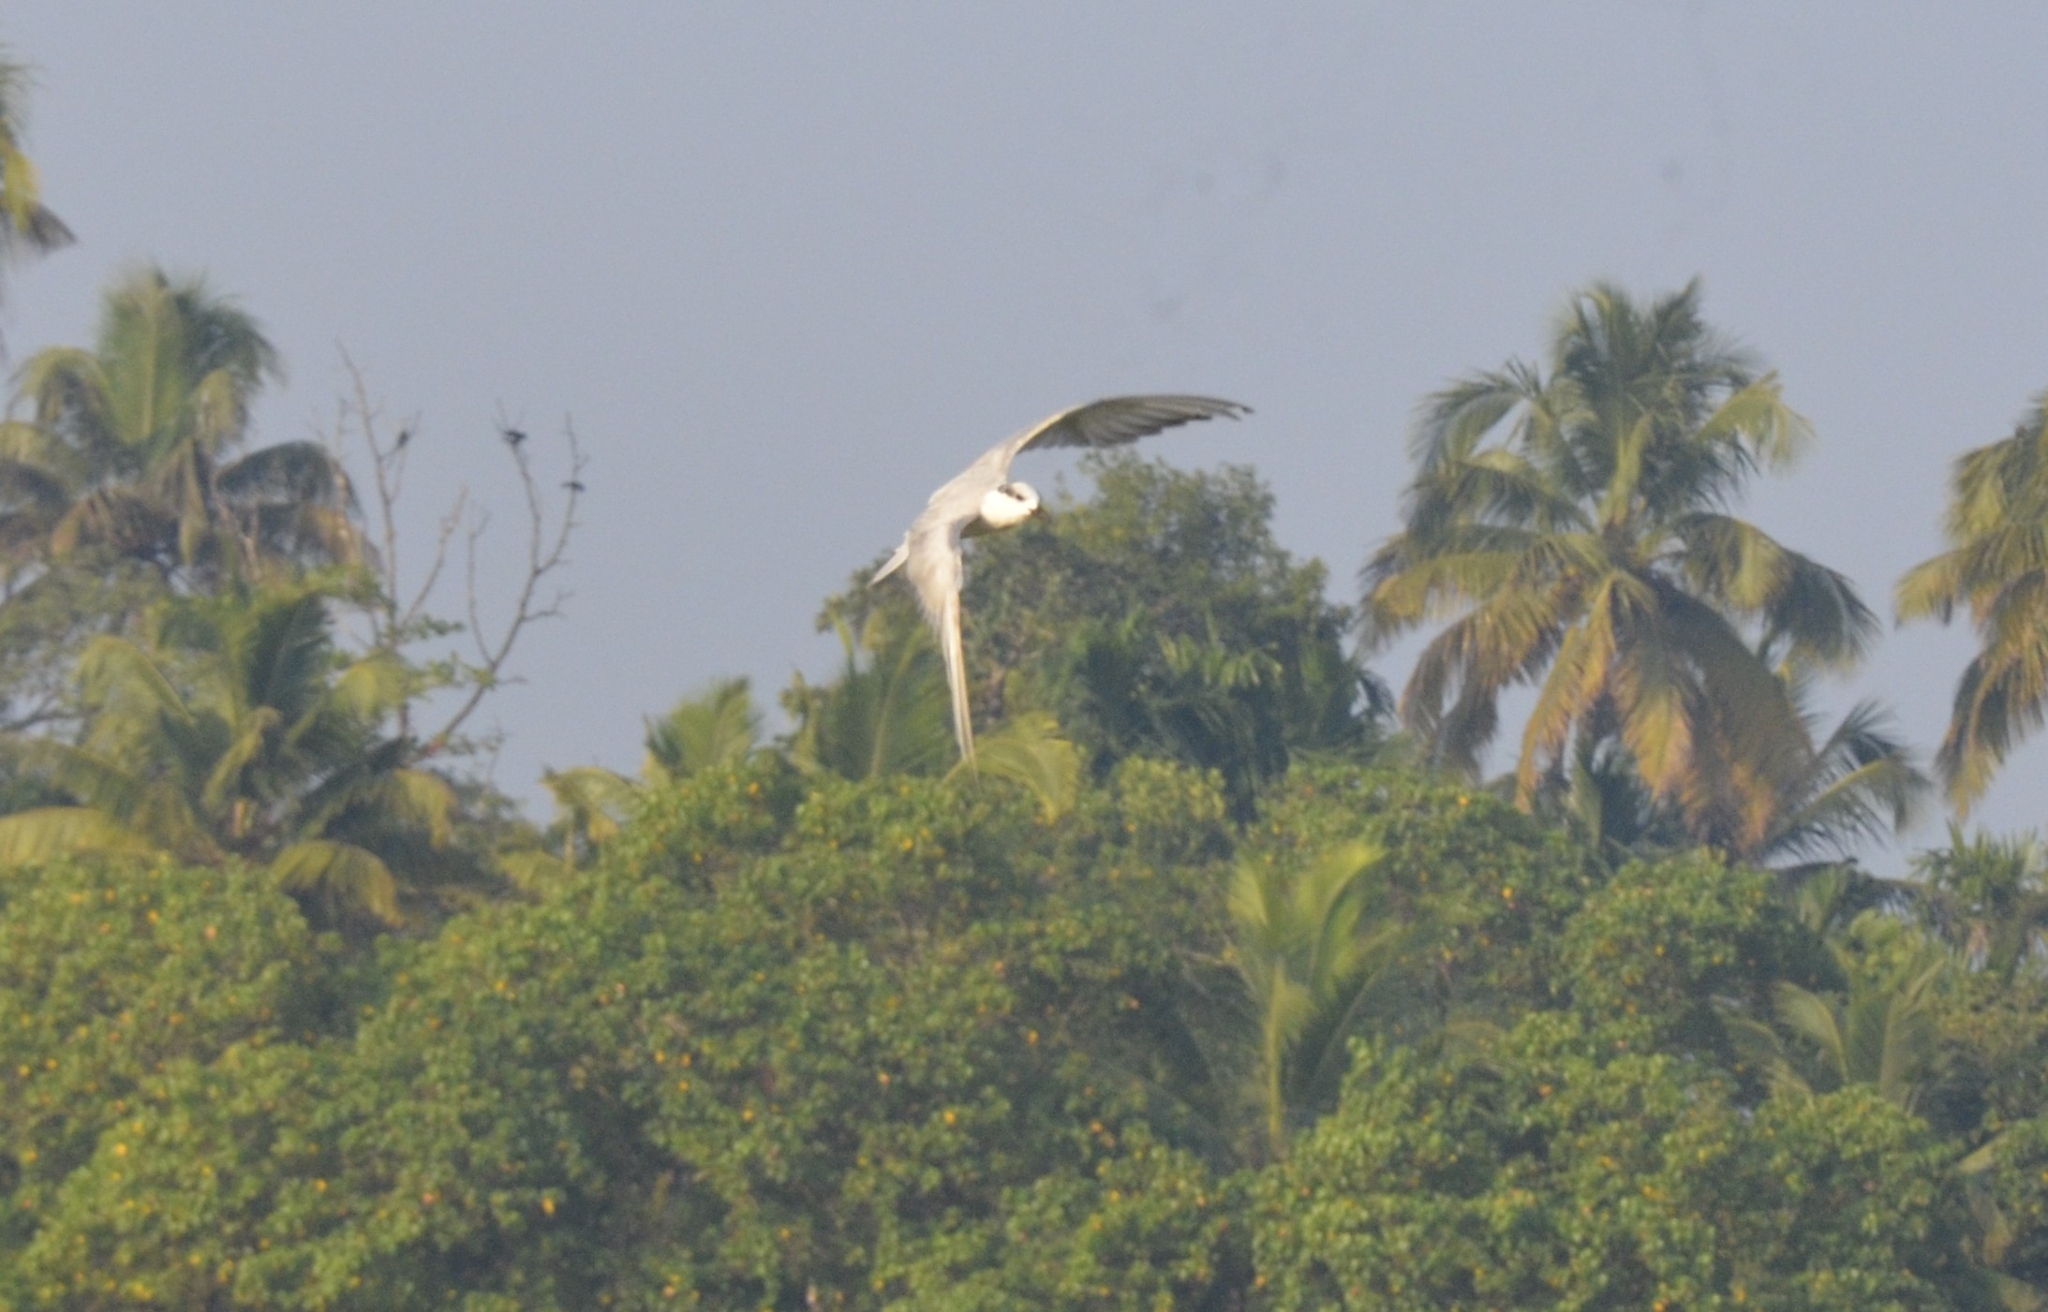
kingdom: Animalia
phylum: Chordata
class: Aves
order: Charadriiformes
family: Laridae
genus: Chlidonias
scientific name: Chlidonias hybrida
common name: Whiskered tern
